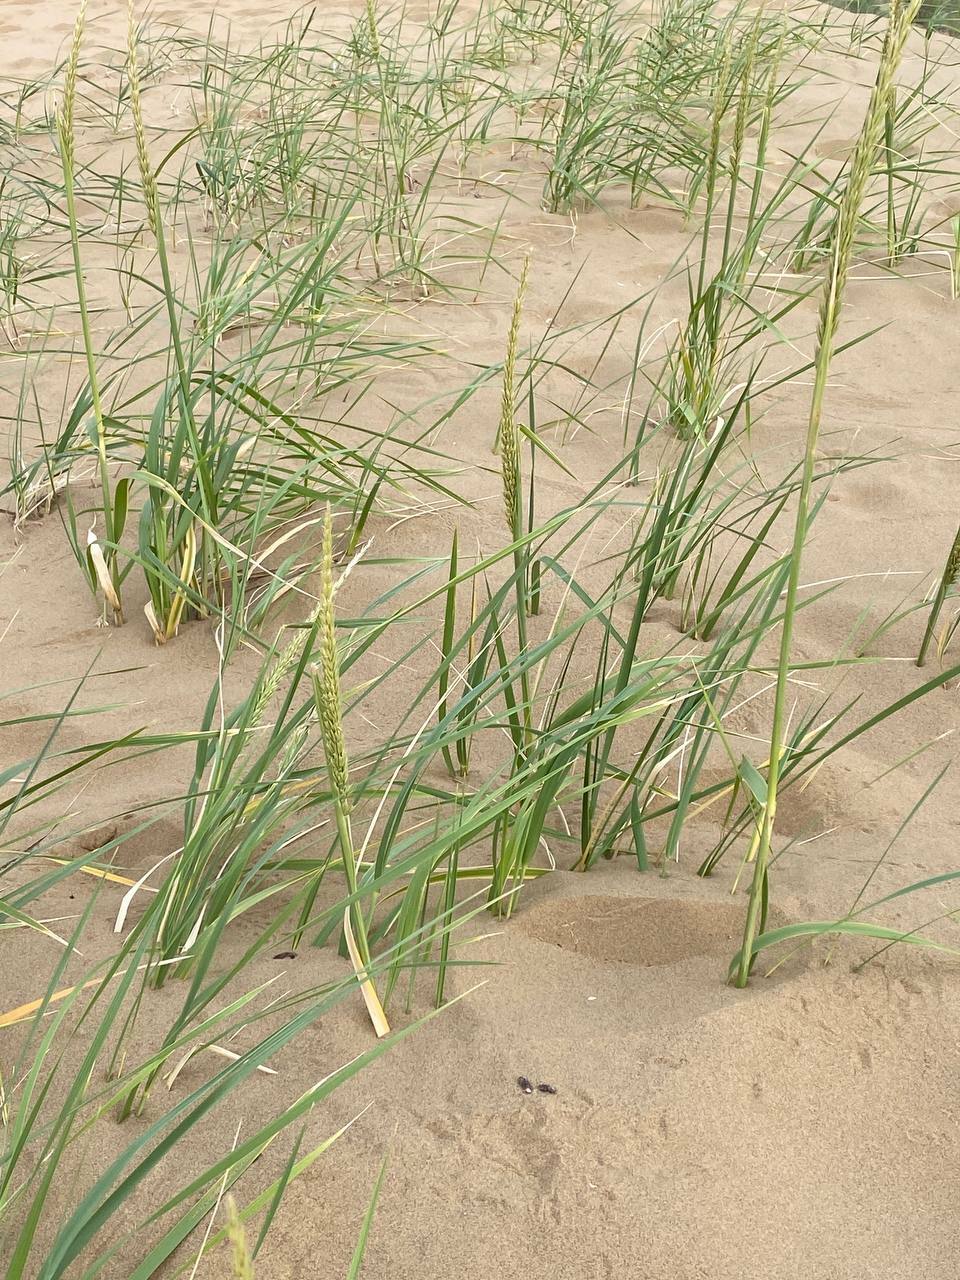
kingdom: Plantae
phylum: Tracheophyta
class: Liliopsida
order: Poales
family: Poaceae
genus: Leymus
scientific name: Leymus racemosus
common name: Mammoth wildrye
